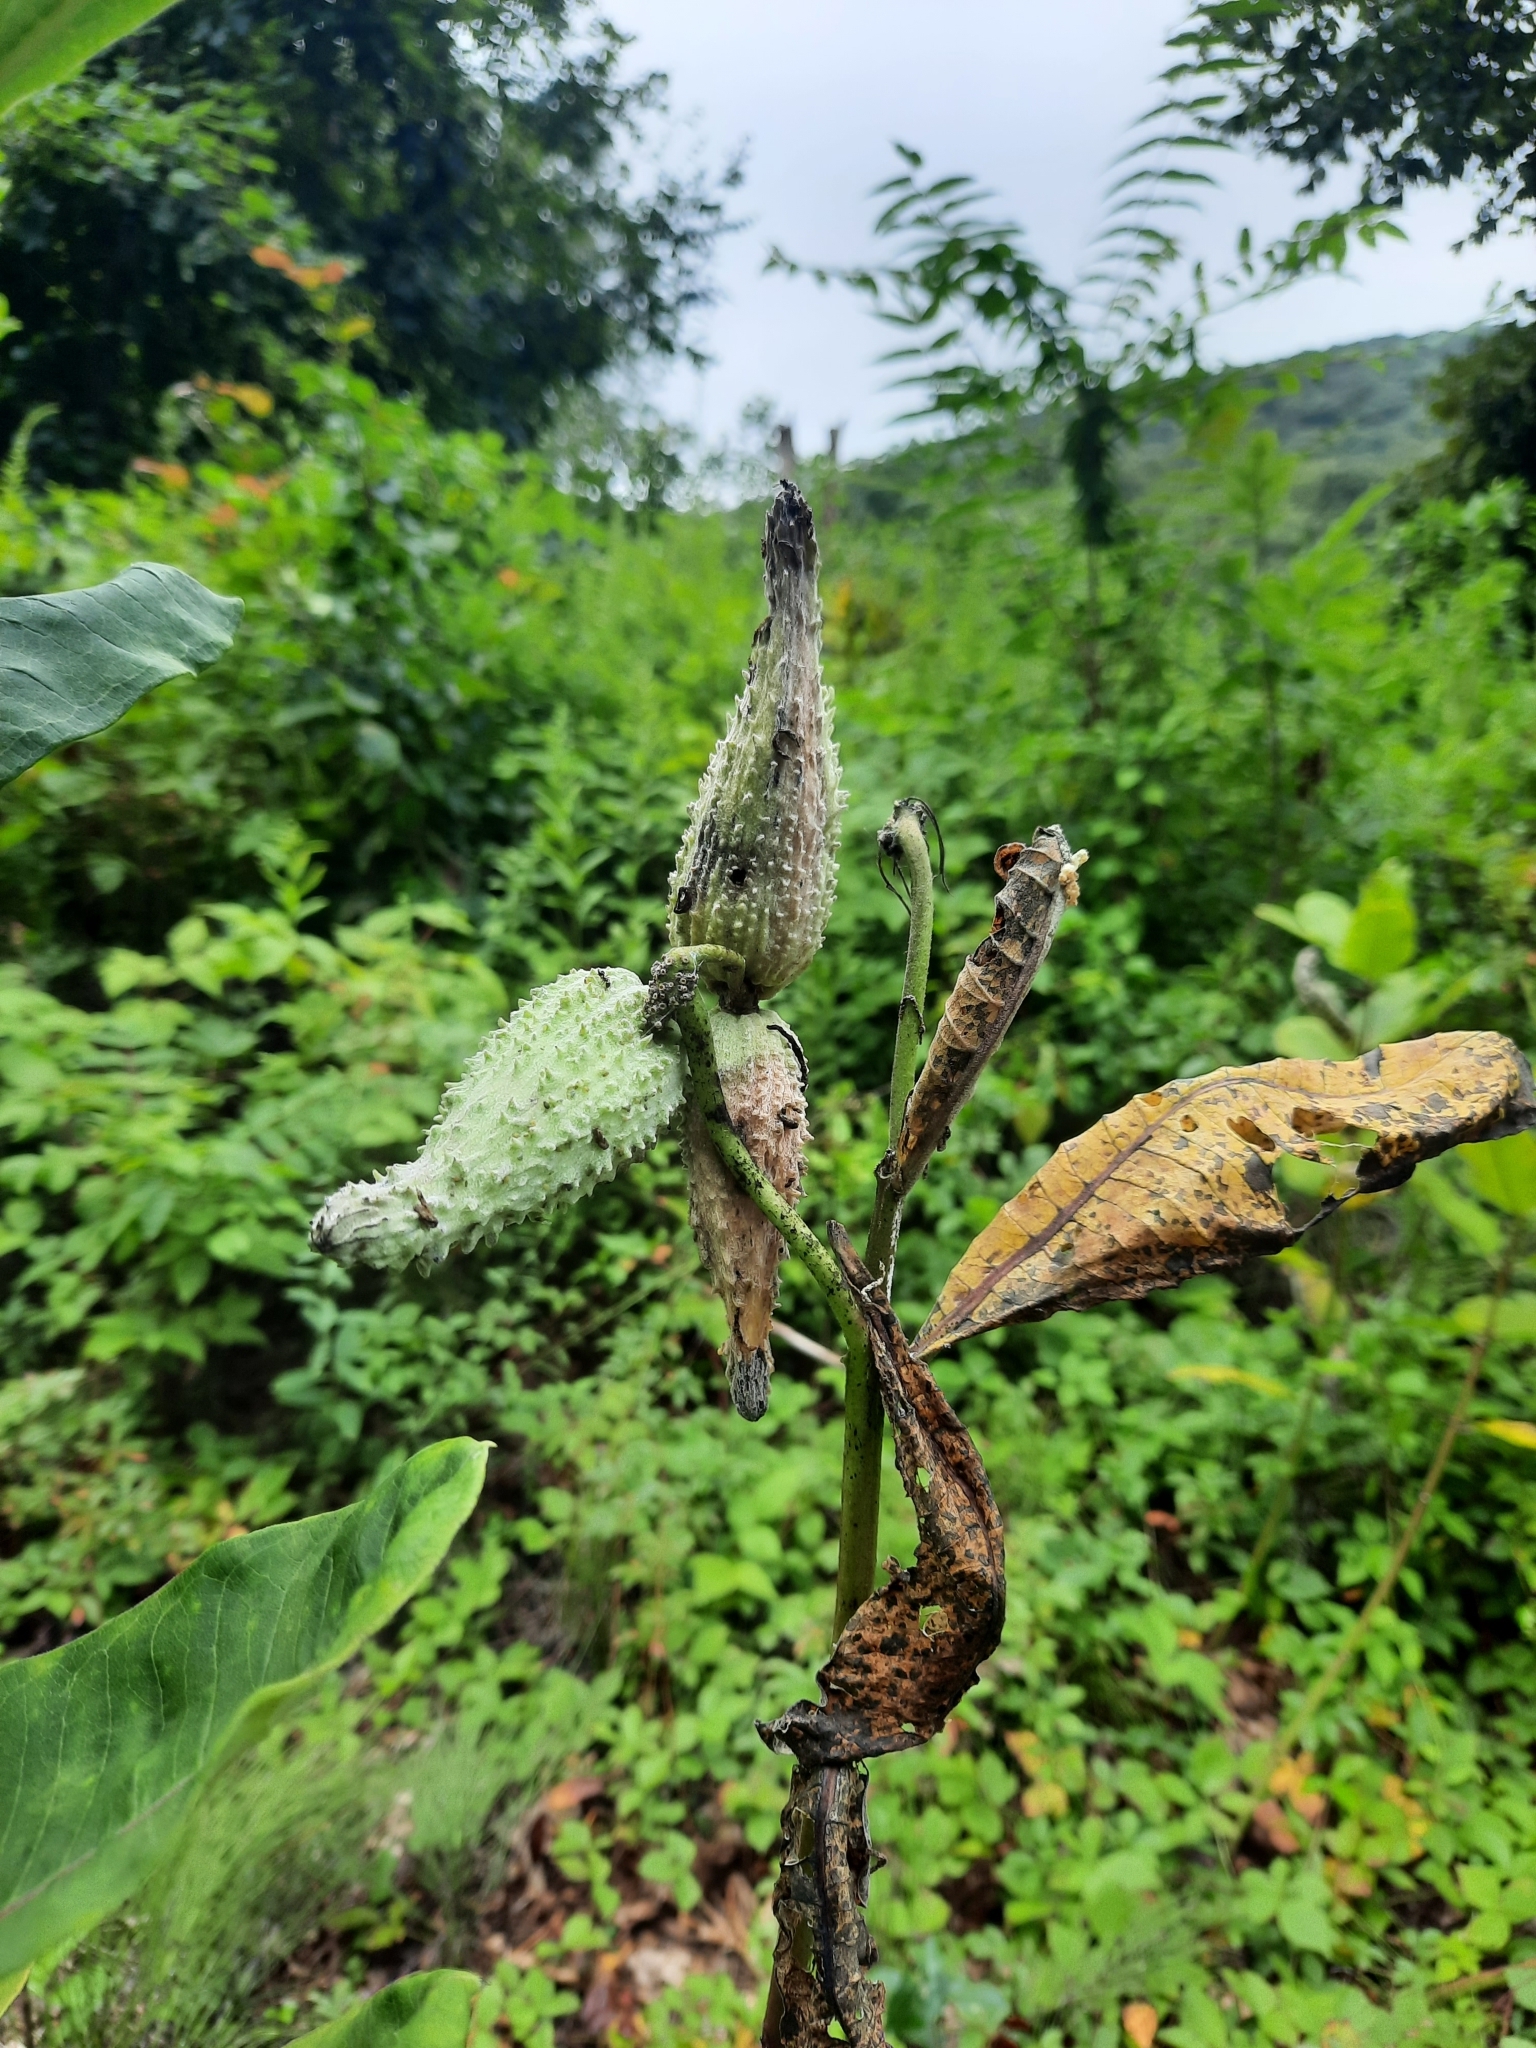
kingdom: Plantae
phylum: Tracheophyta
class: Magnoliopsida
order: Gentianales
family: Apocynaceae
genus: Asclepias
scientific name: Asclepias syriaca
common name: Common milkweed
